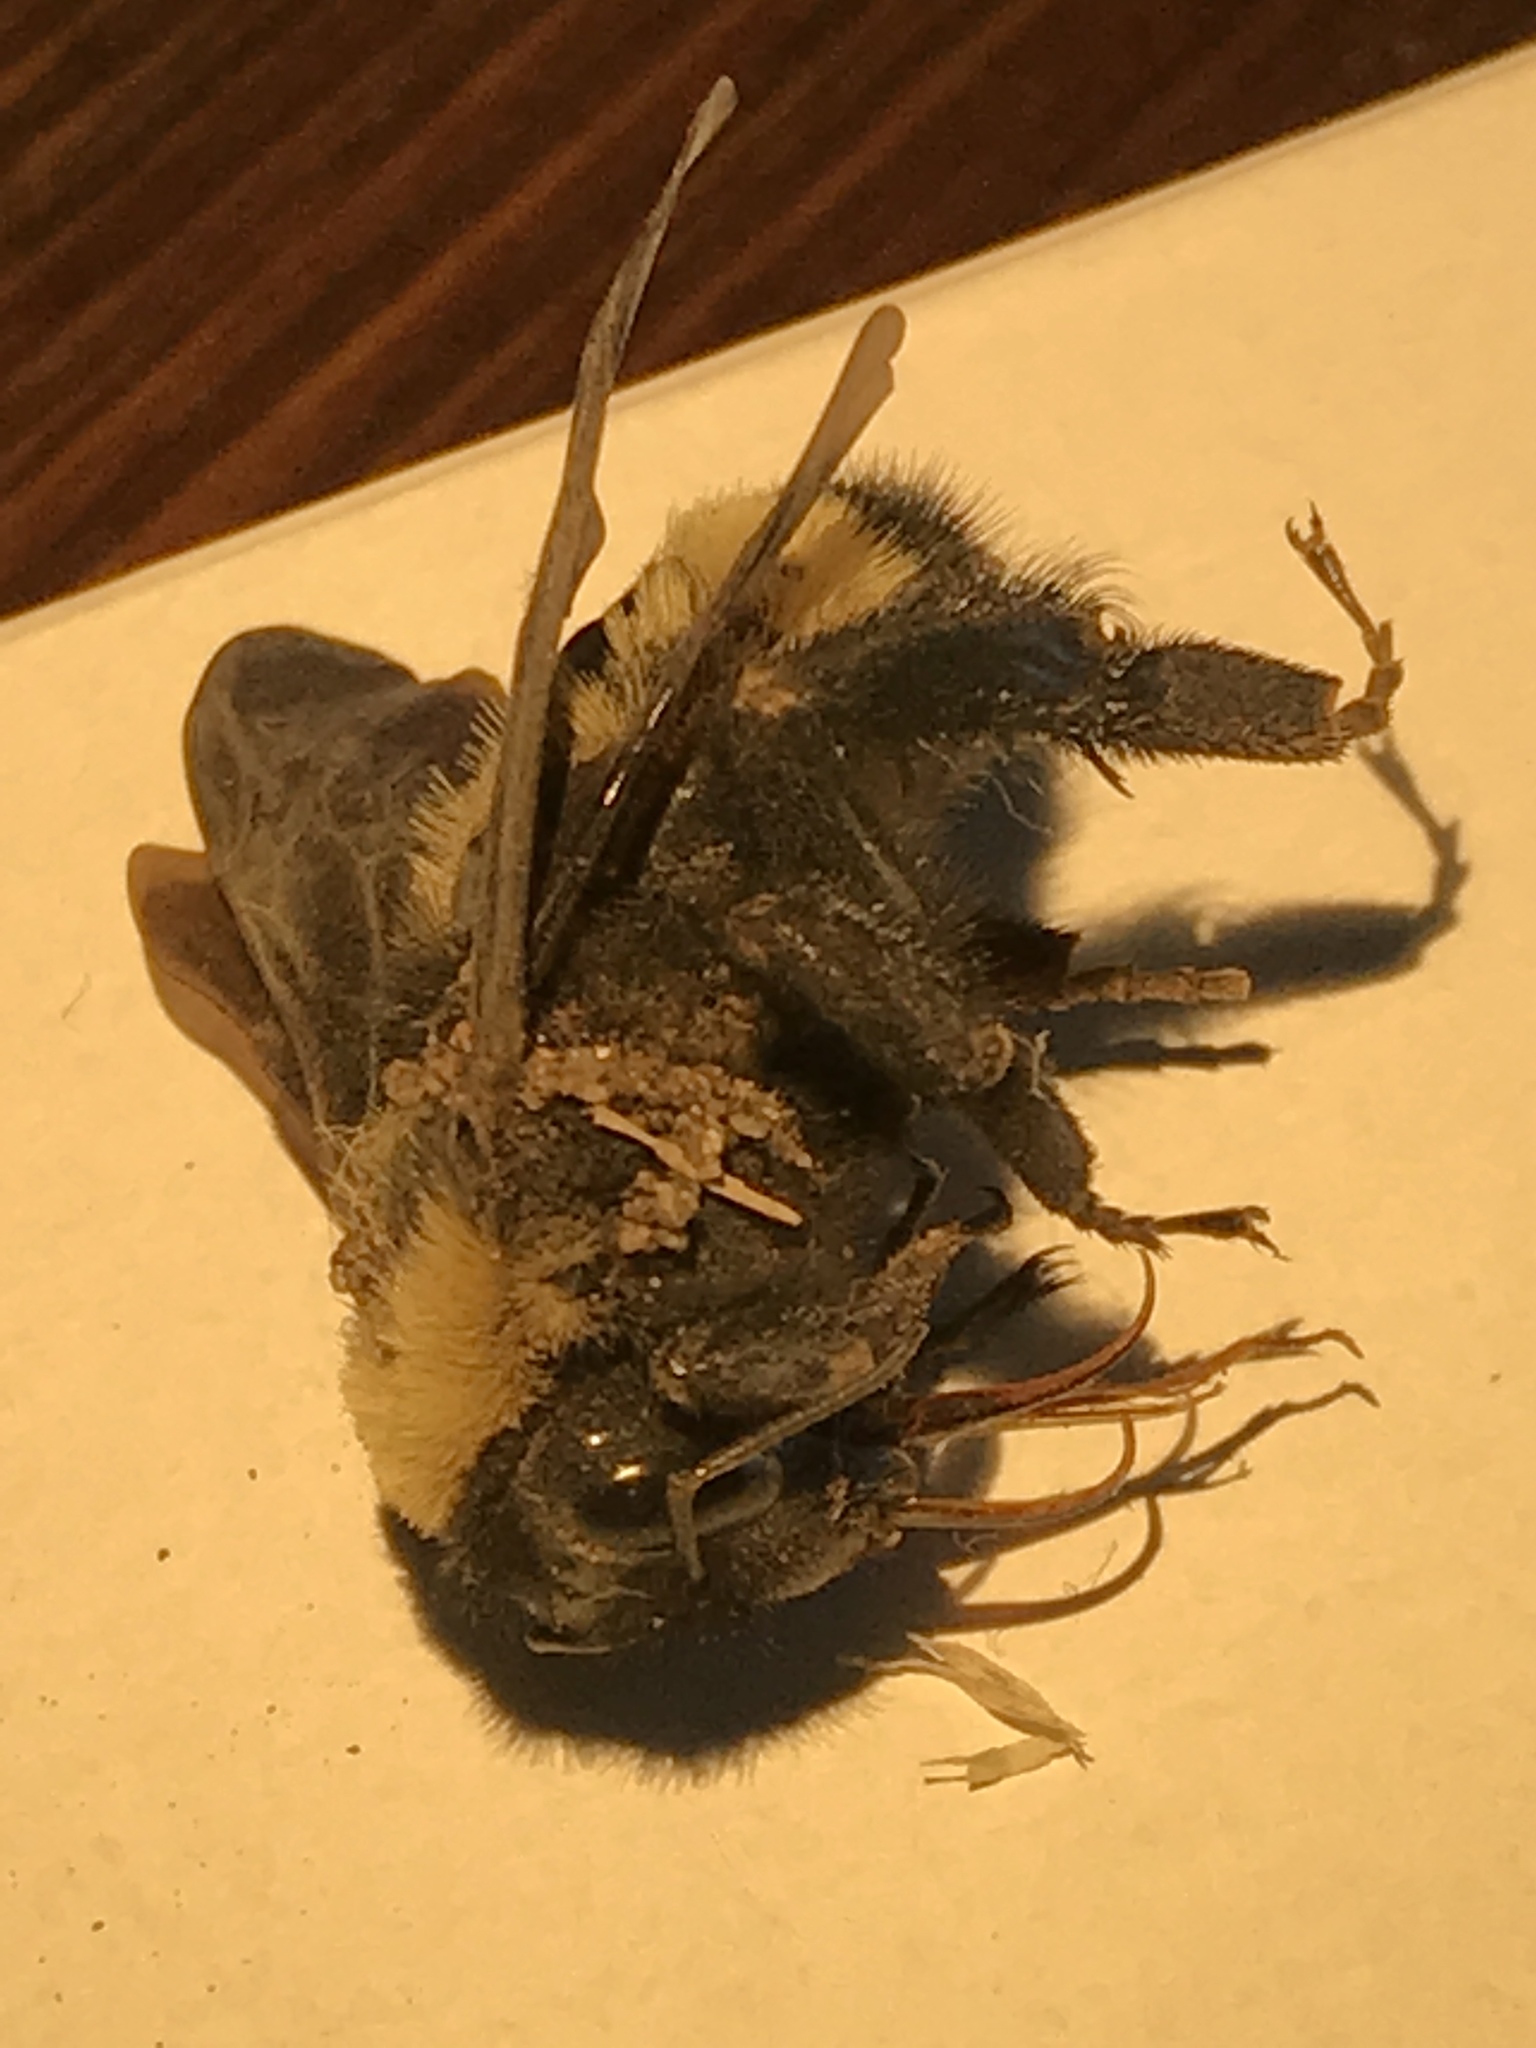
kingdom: Animalia
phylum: Arthropoda
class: Insecta
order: Hymenoptera
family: Apidae
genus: Bombus
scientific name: Bombus pensylvanicus
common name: Bumble bee
